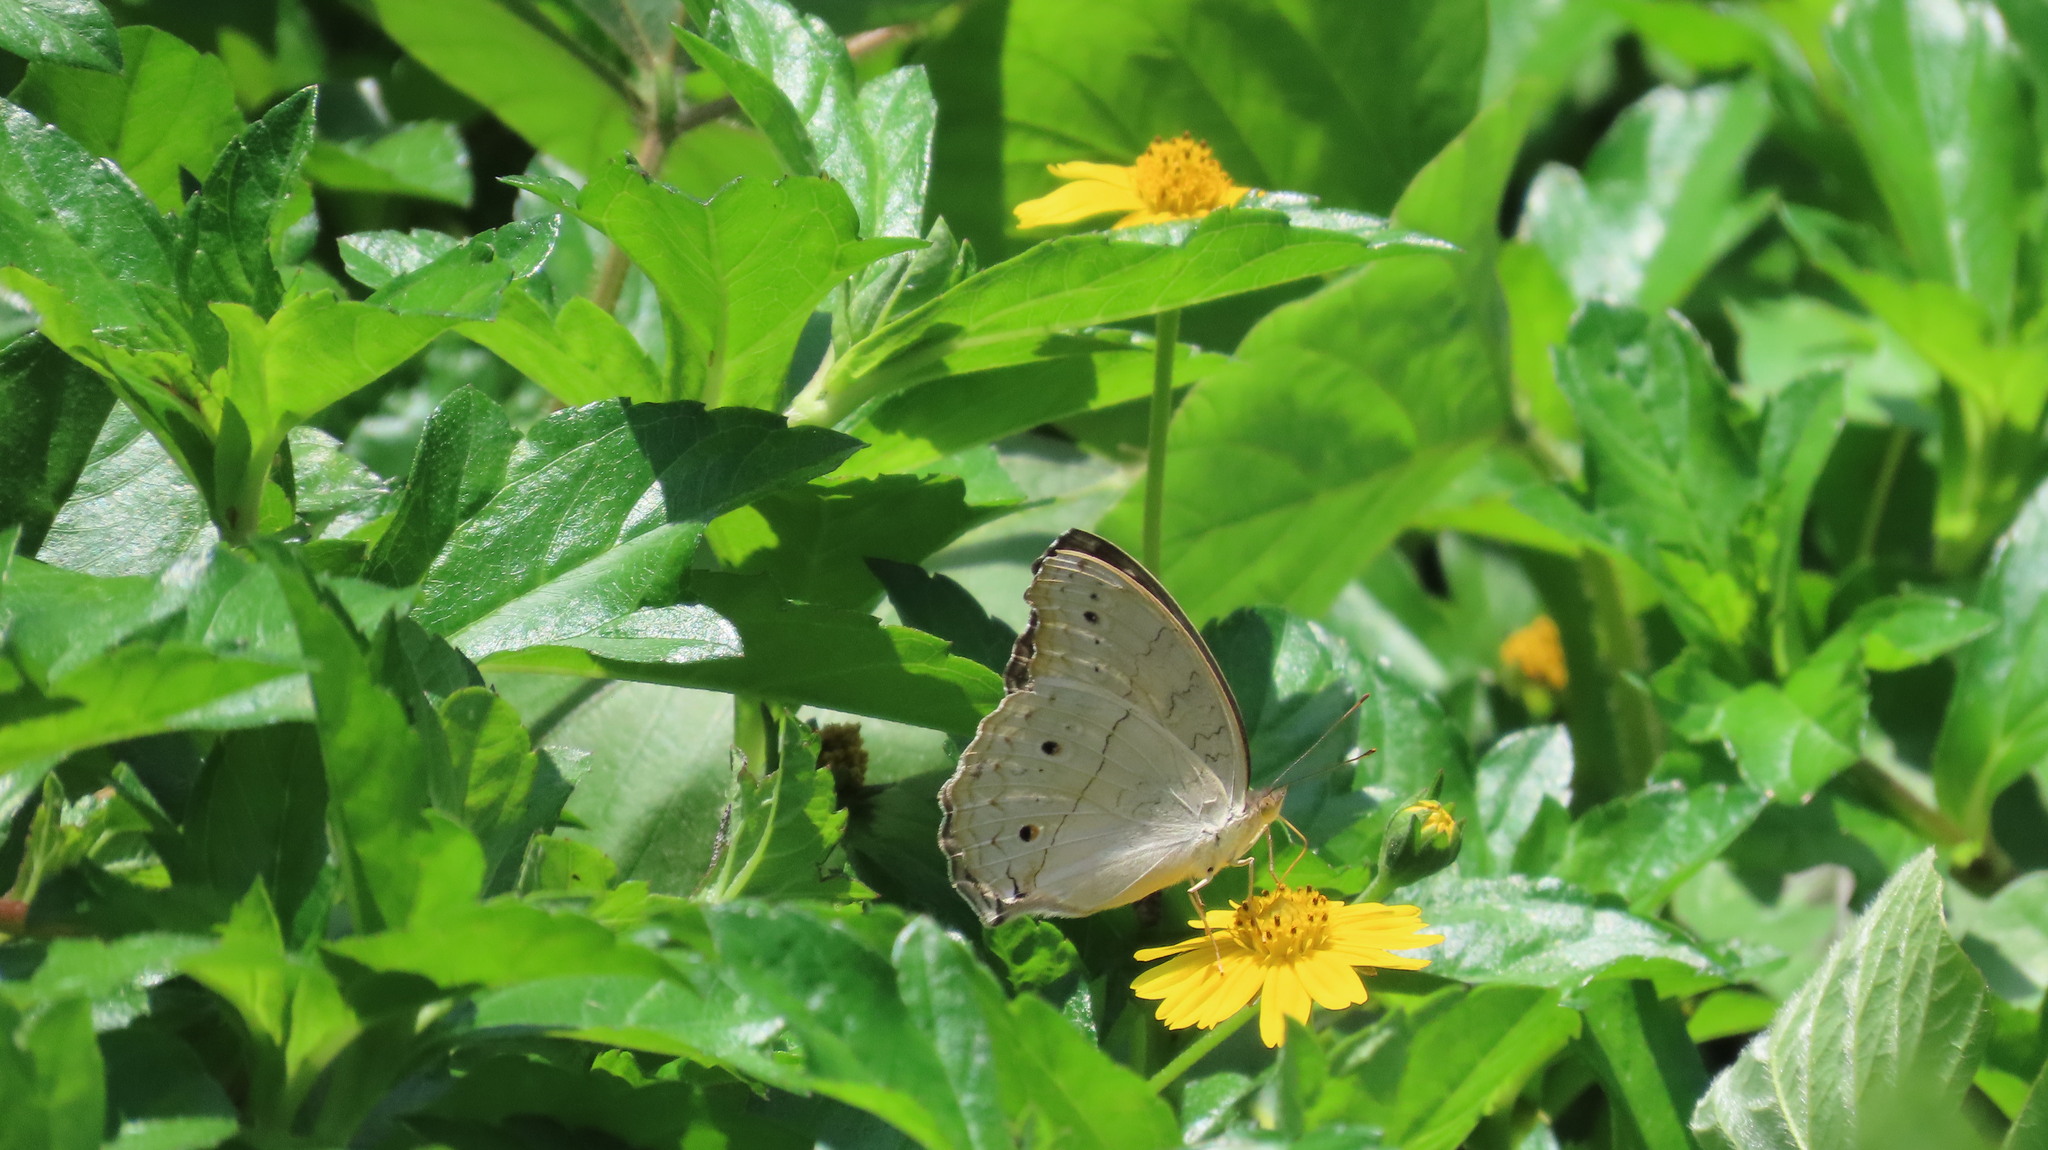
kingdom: Animalia
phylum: Arthropoda
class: Insecta
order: Lepidoptera
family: Nymphalidae
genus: Junonia
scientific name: Junonia atlites
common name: Grey pansy
